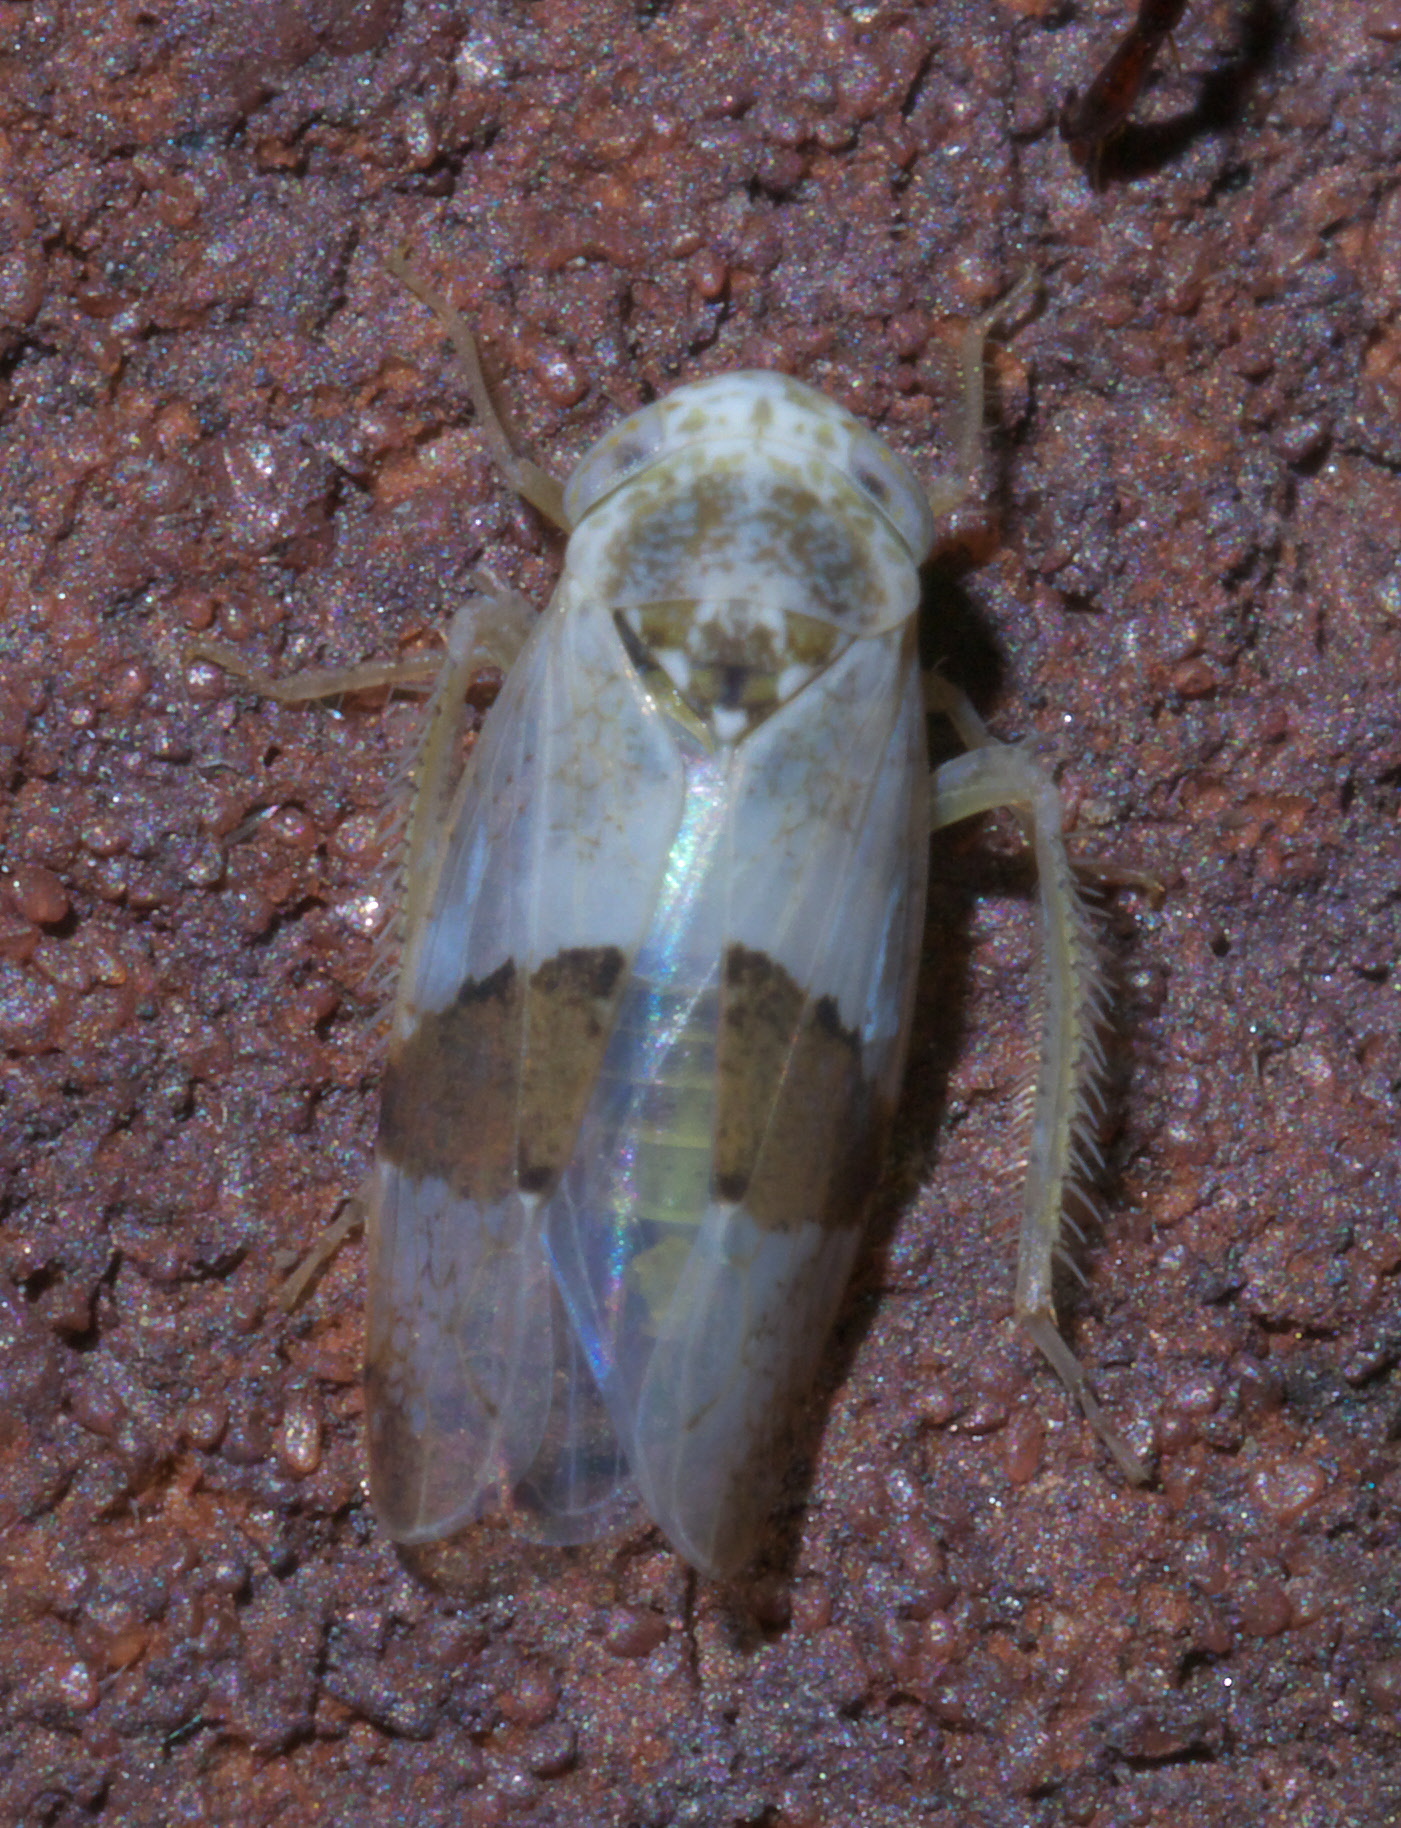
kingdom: Animalia
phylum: Arthropoda
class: Insecta
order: Hemiptera
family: Cicadellidae
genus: Norvellina
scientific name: Norvellina seminuda
